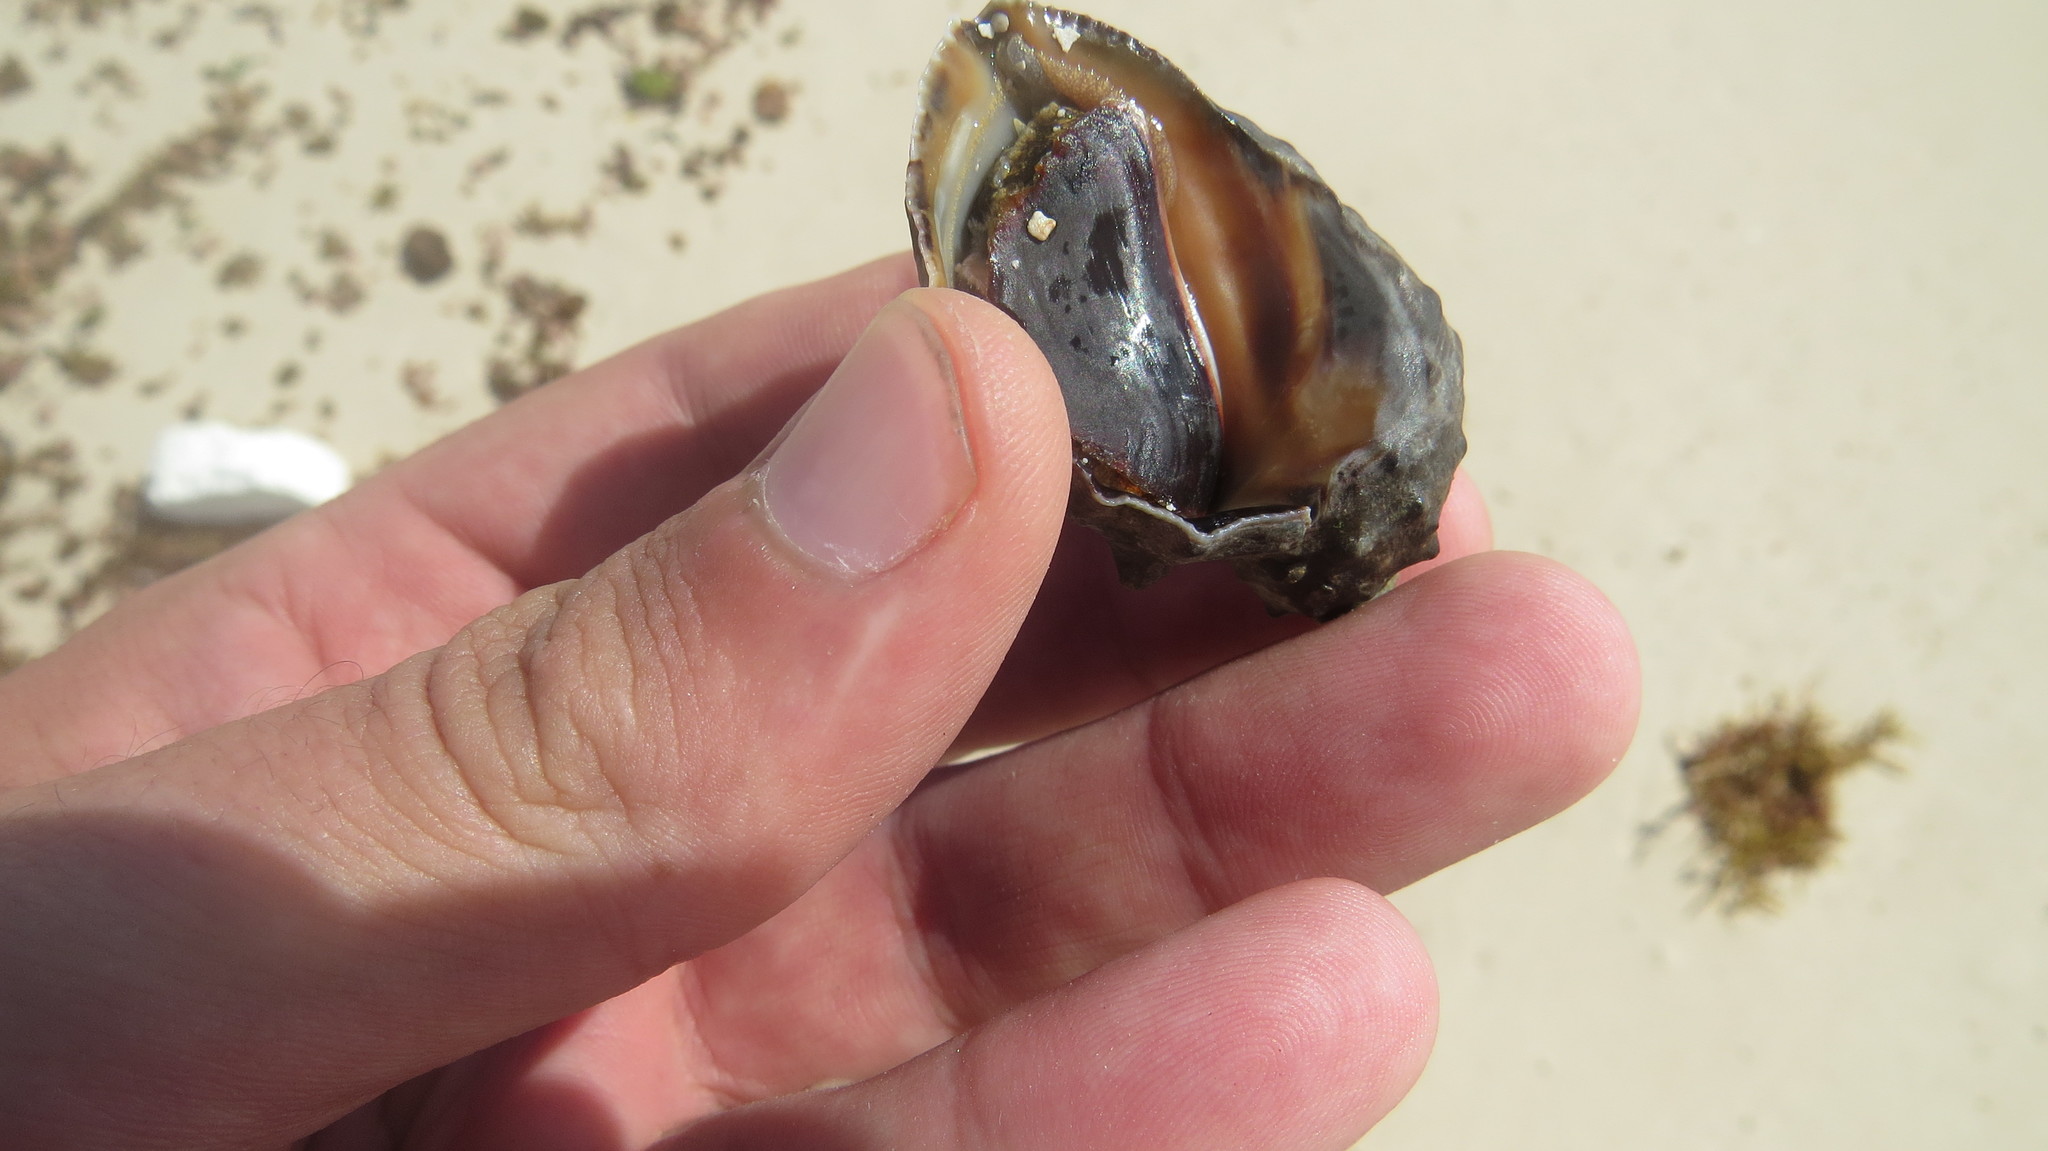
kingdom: Animalia
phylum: Mollusca
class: Gastropoda
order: Neogastropoda
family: Muricidae
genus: Plicopurpura
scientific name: Plicopurpura patula
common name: Wide-mouthed dye shell
